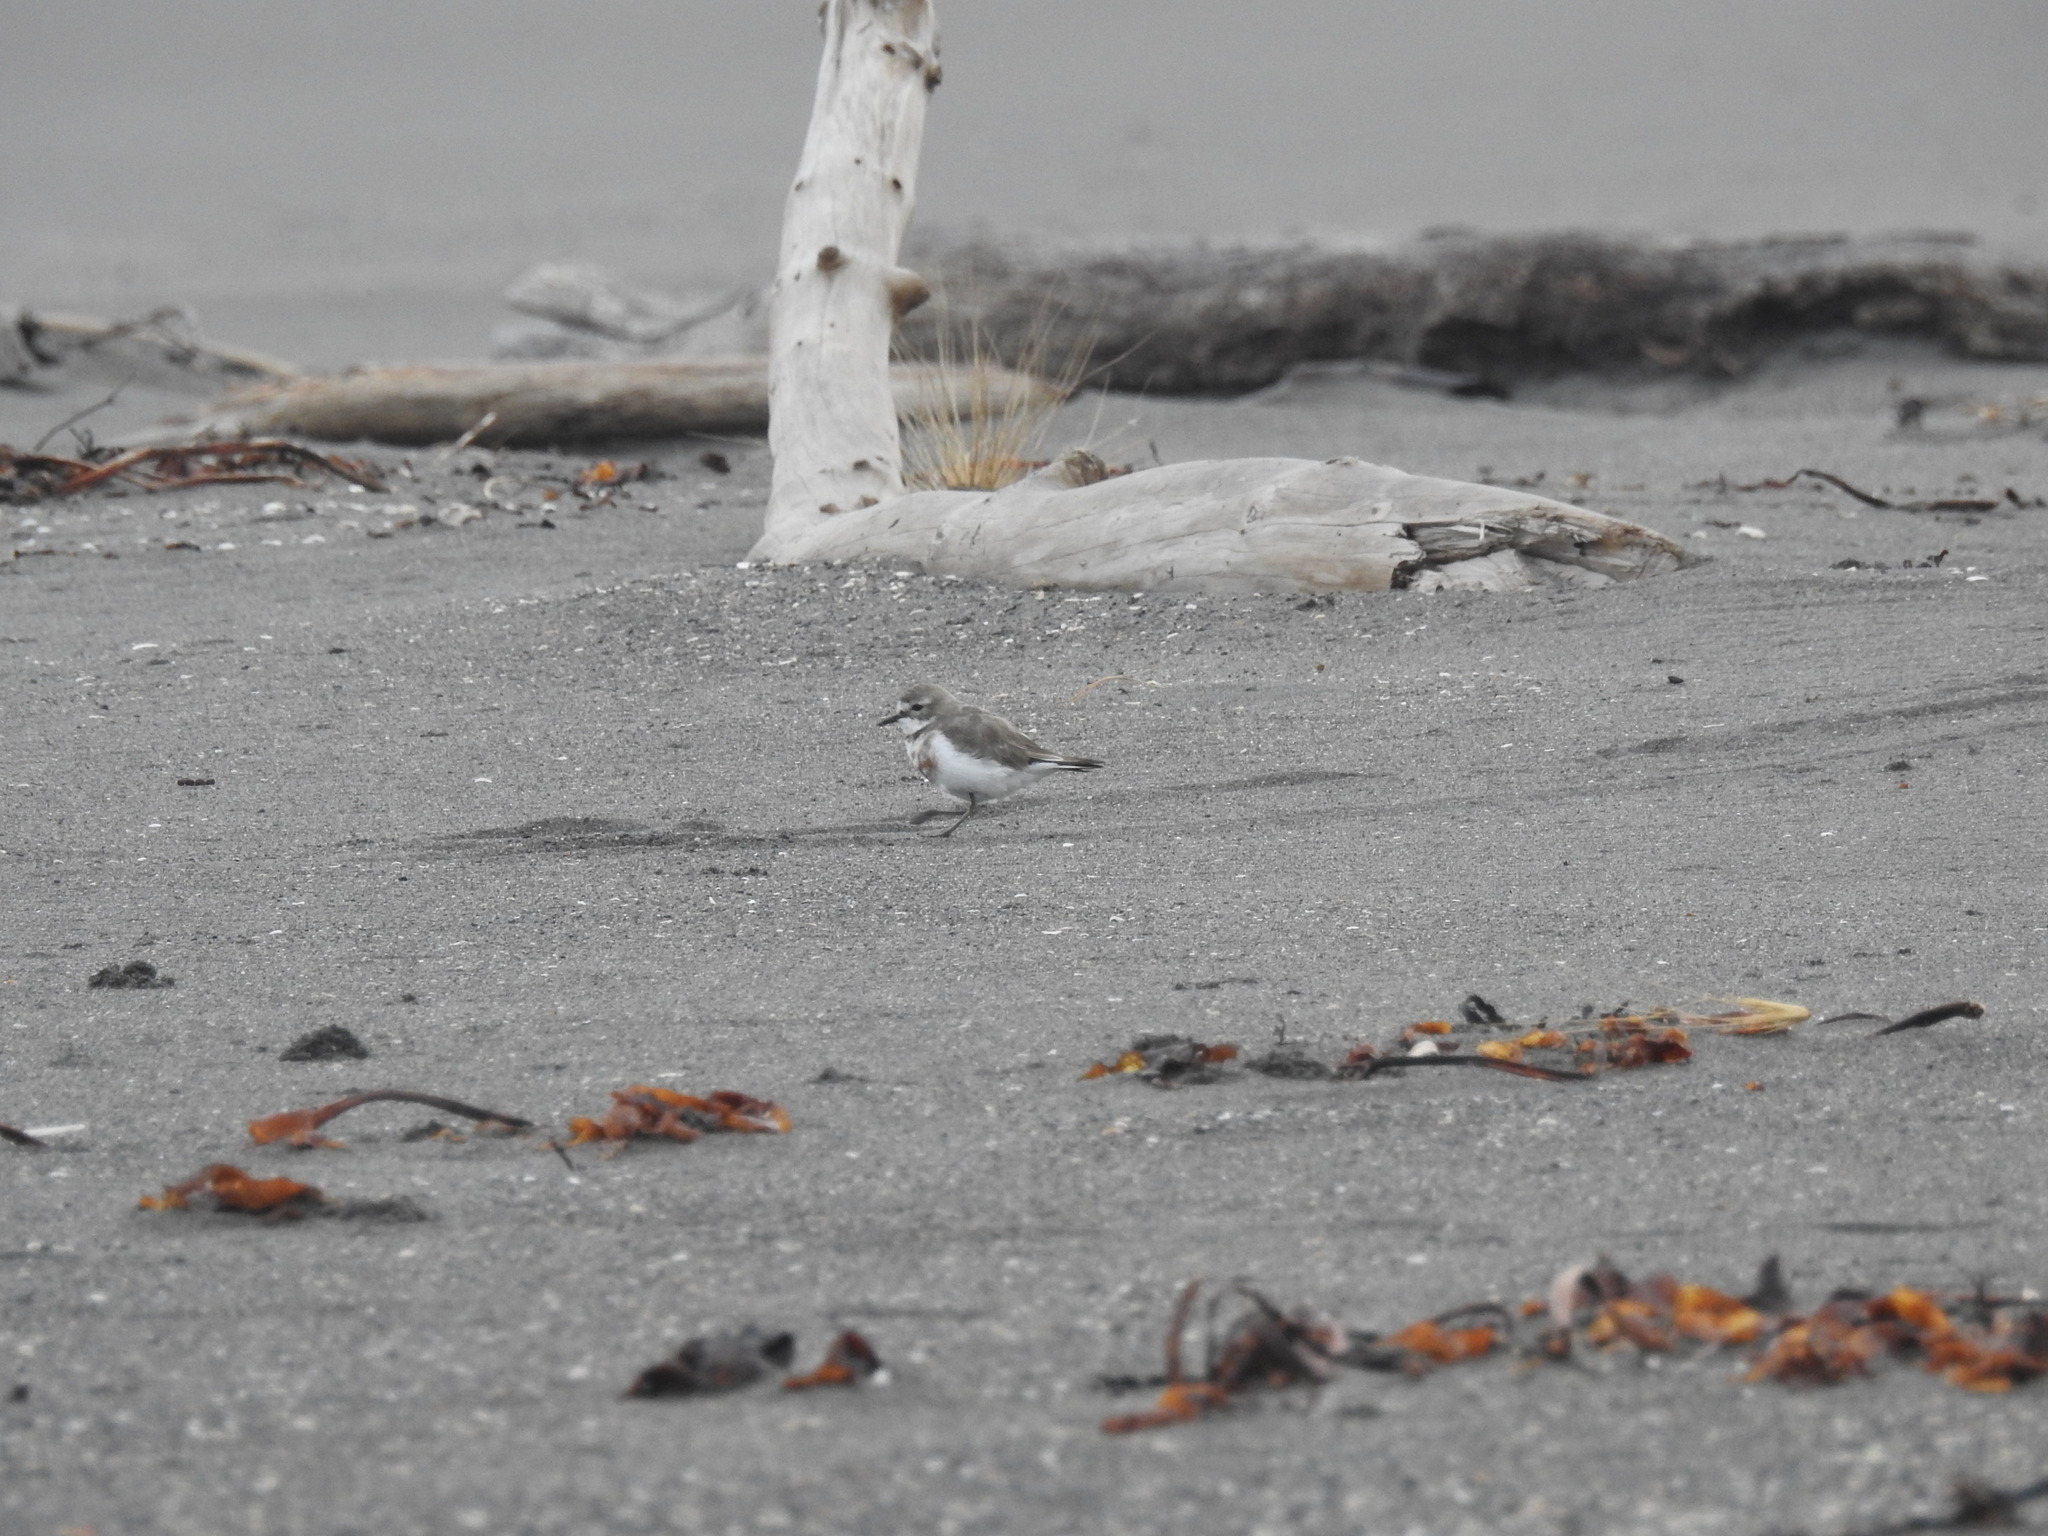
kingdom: Animalia
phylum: Chordata
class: Aves
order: Charadriiformes
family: Charadriidae
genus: Anarhynchus
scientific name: Anarhynchus
